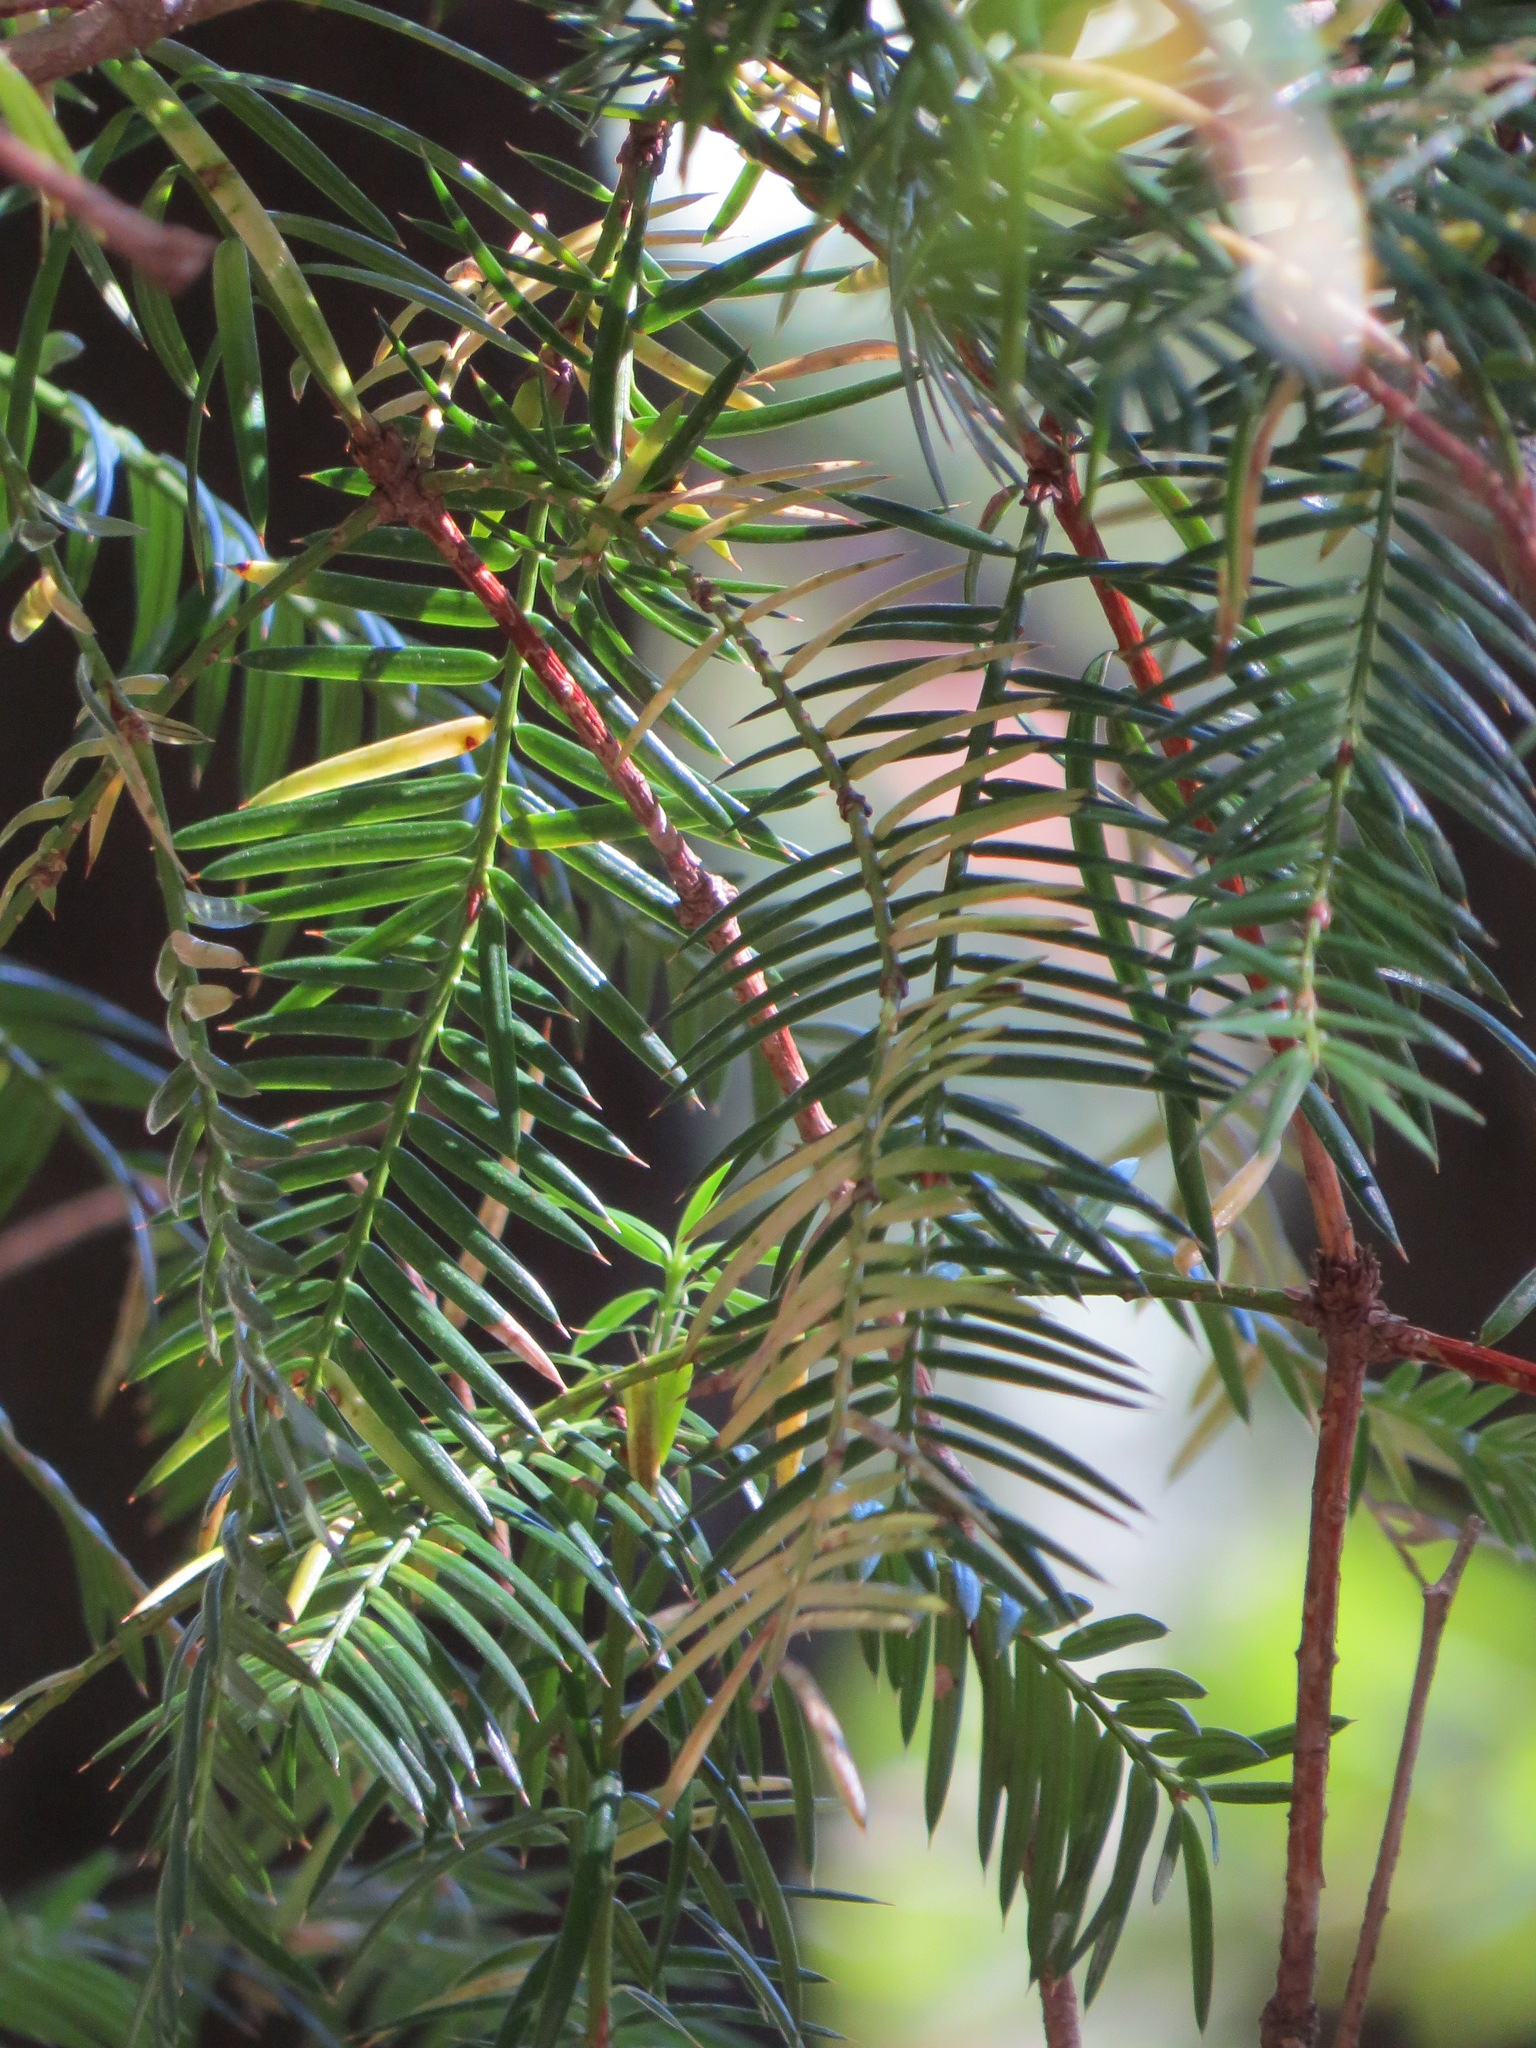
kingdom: Plantae
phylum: Tracheophyta
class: Pinopsida
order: Pinales
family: Taxaceae
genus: Torreya
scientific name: Torreya californica
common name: California torreya
